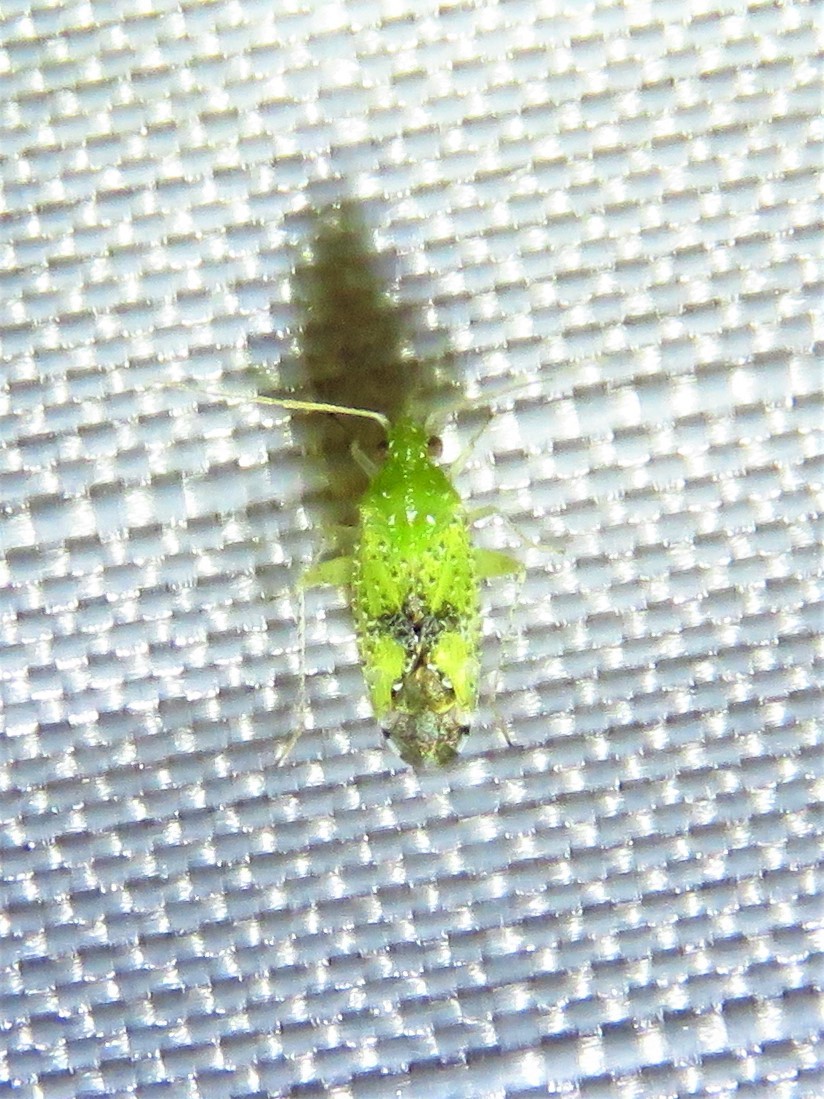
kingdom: Animalia
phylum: Arthropoda
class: Insecta
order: Hemiptera
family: Miridae
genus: Keltonia
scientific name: Keltonia tuckeri
